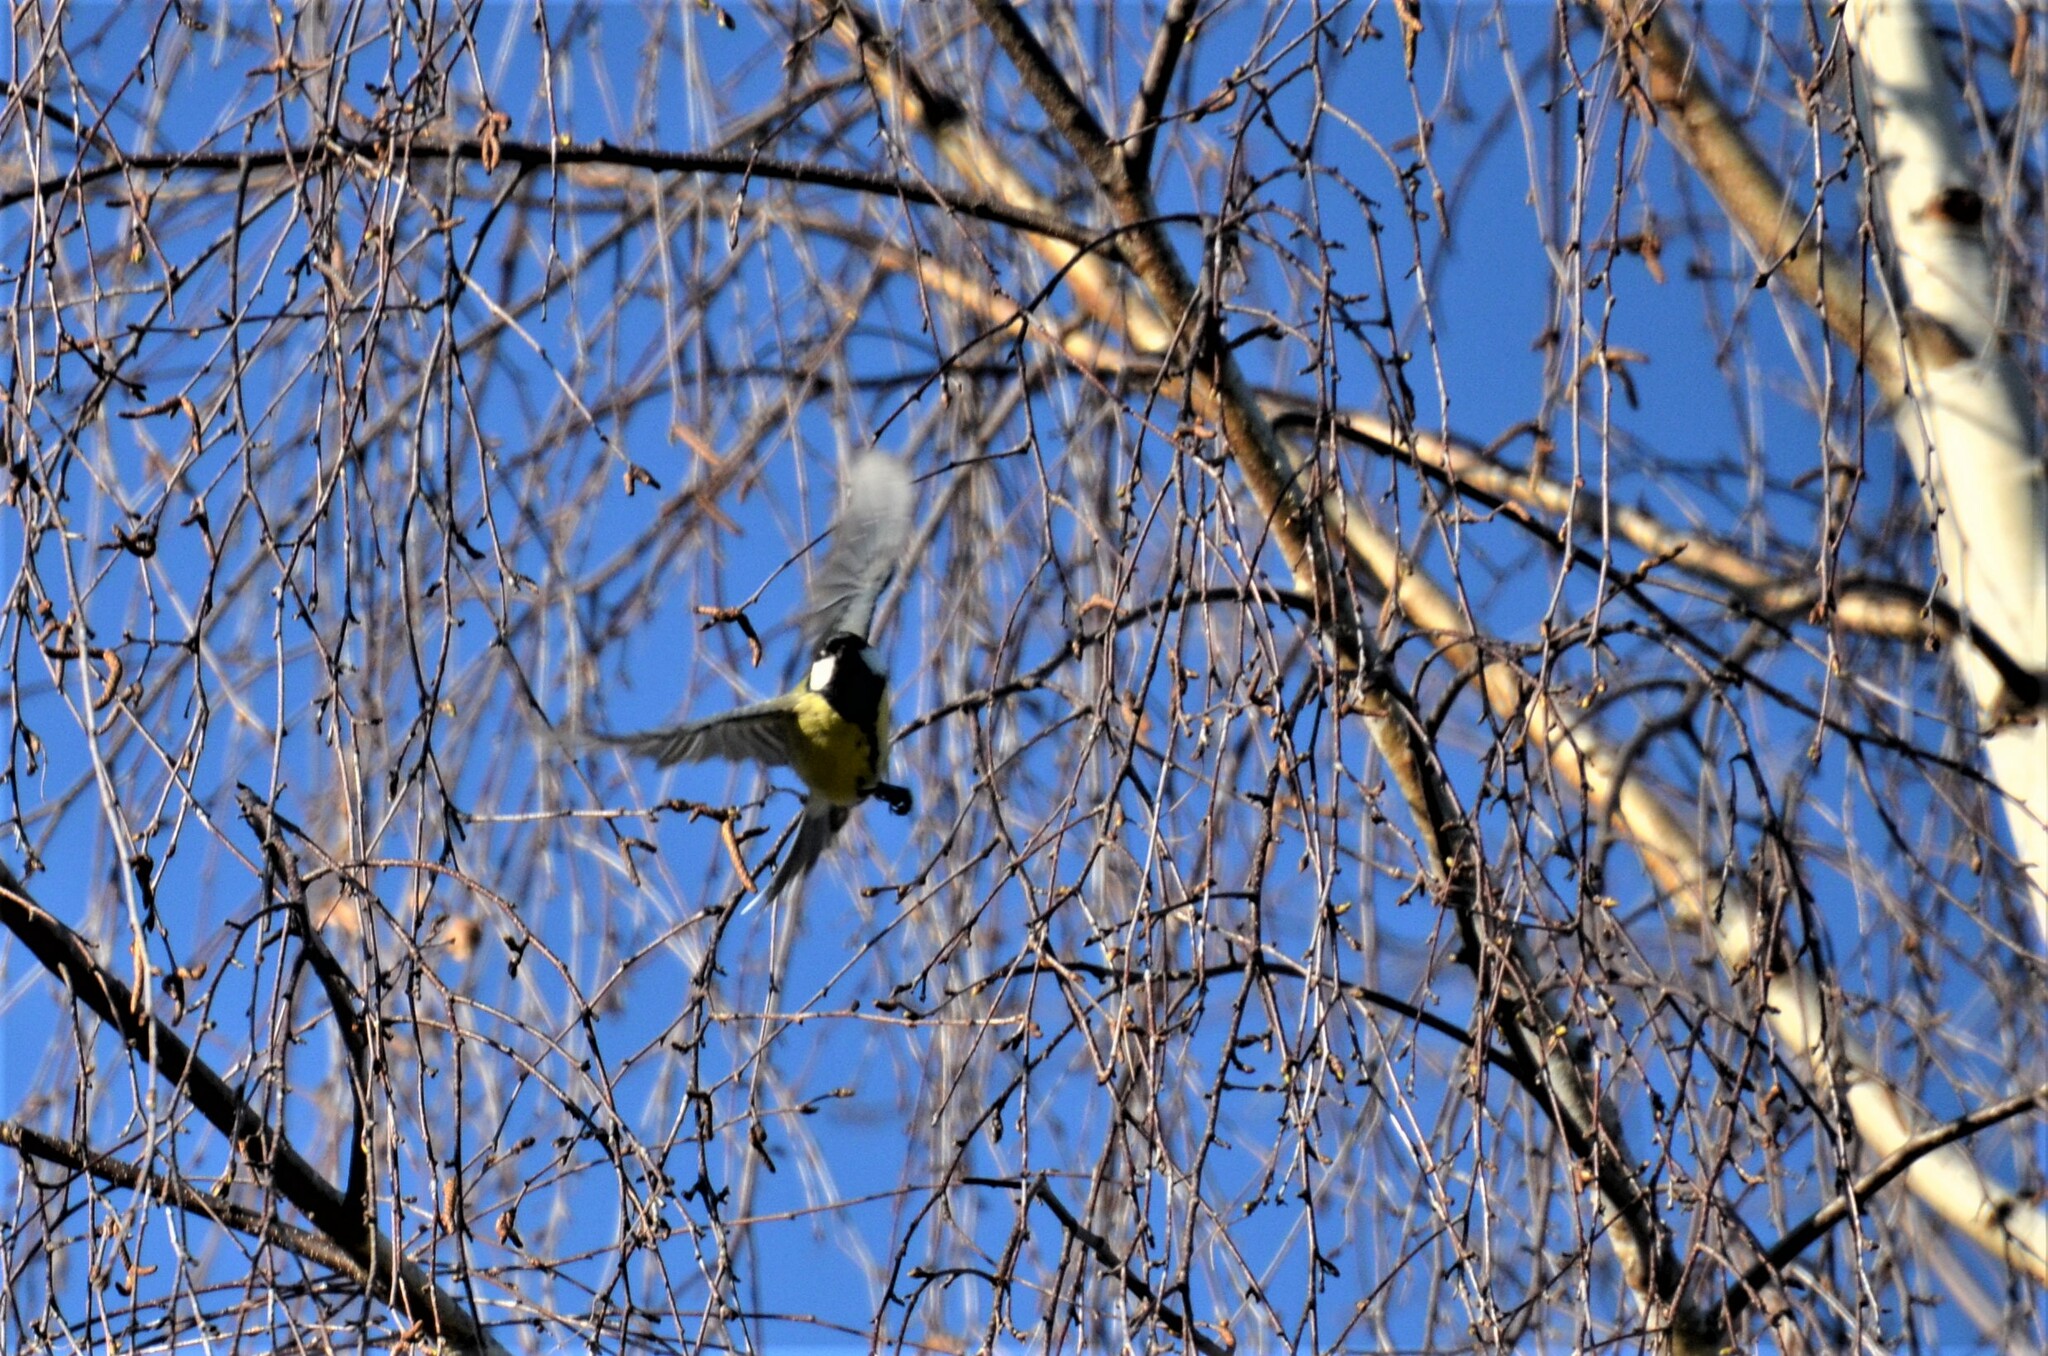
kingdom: Animalia
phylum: Chordata
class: Aves
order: Passeriformes
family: Paridae
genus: Parus
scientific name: Parus major
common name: Great tit
